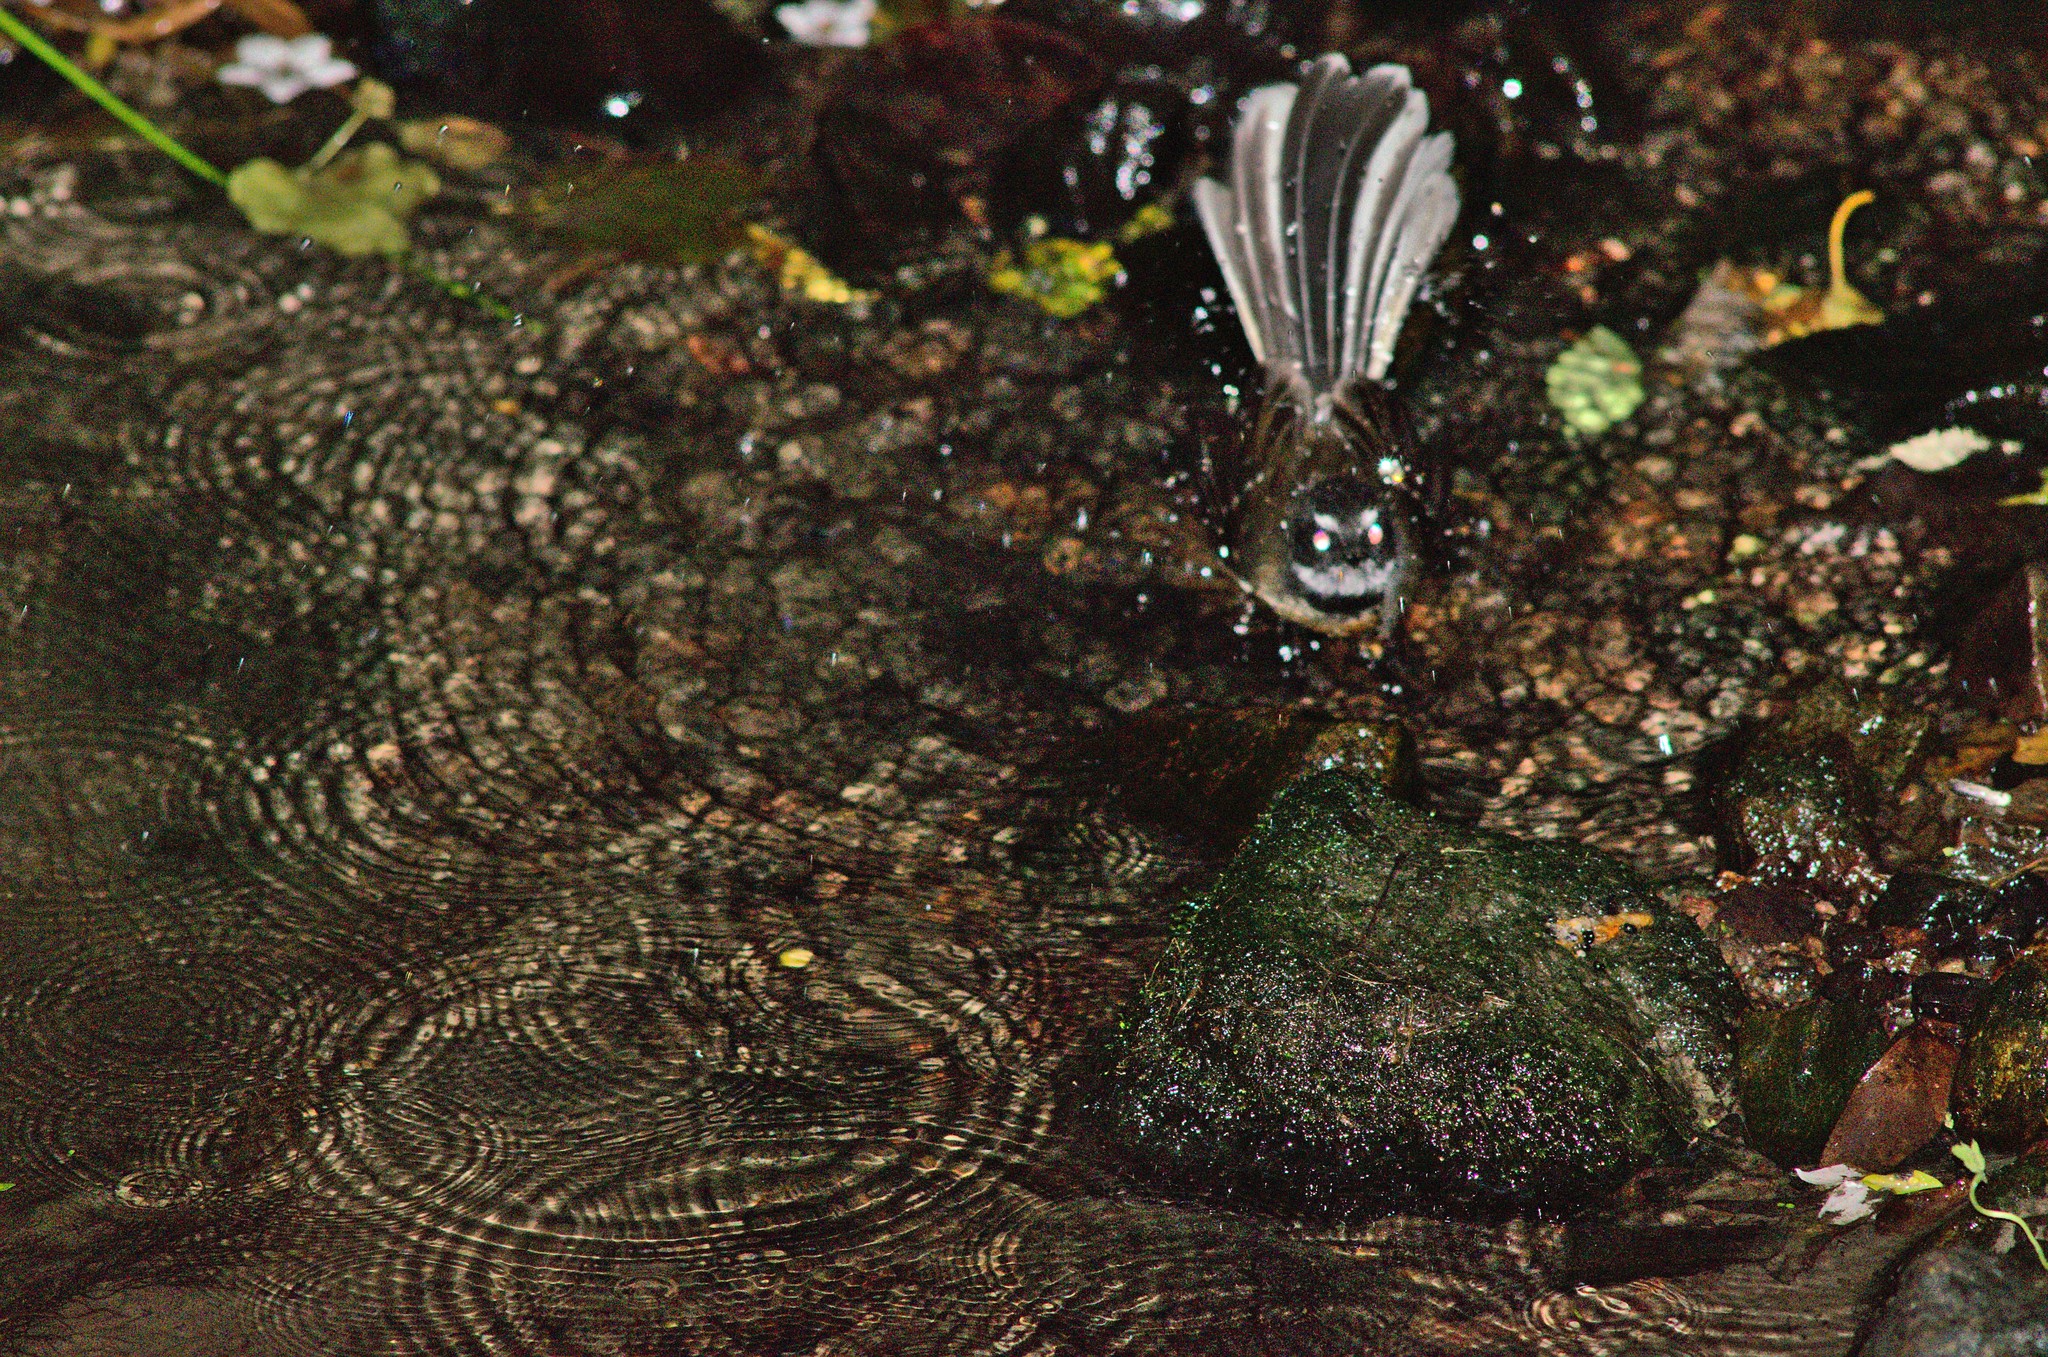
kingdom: Animalia
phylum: Chordata
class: Aves
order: Passeriformes
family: Rhipiduridae
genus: Rhipidura
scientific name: Rhipidura fuliginosa
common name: New zealand fantail
